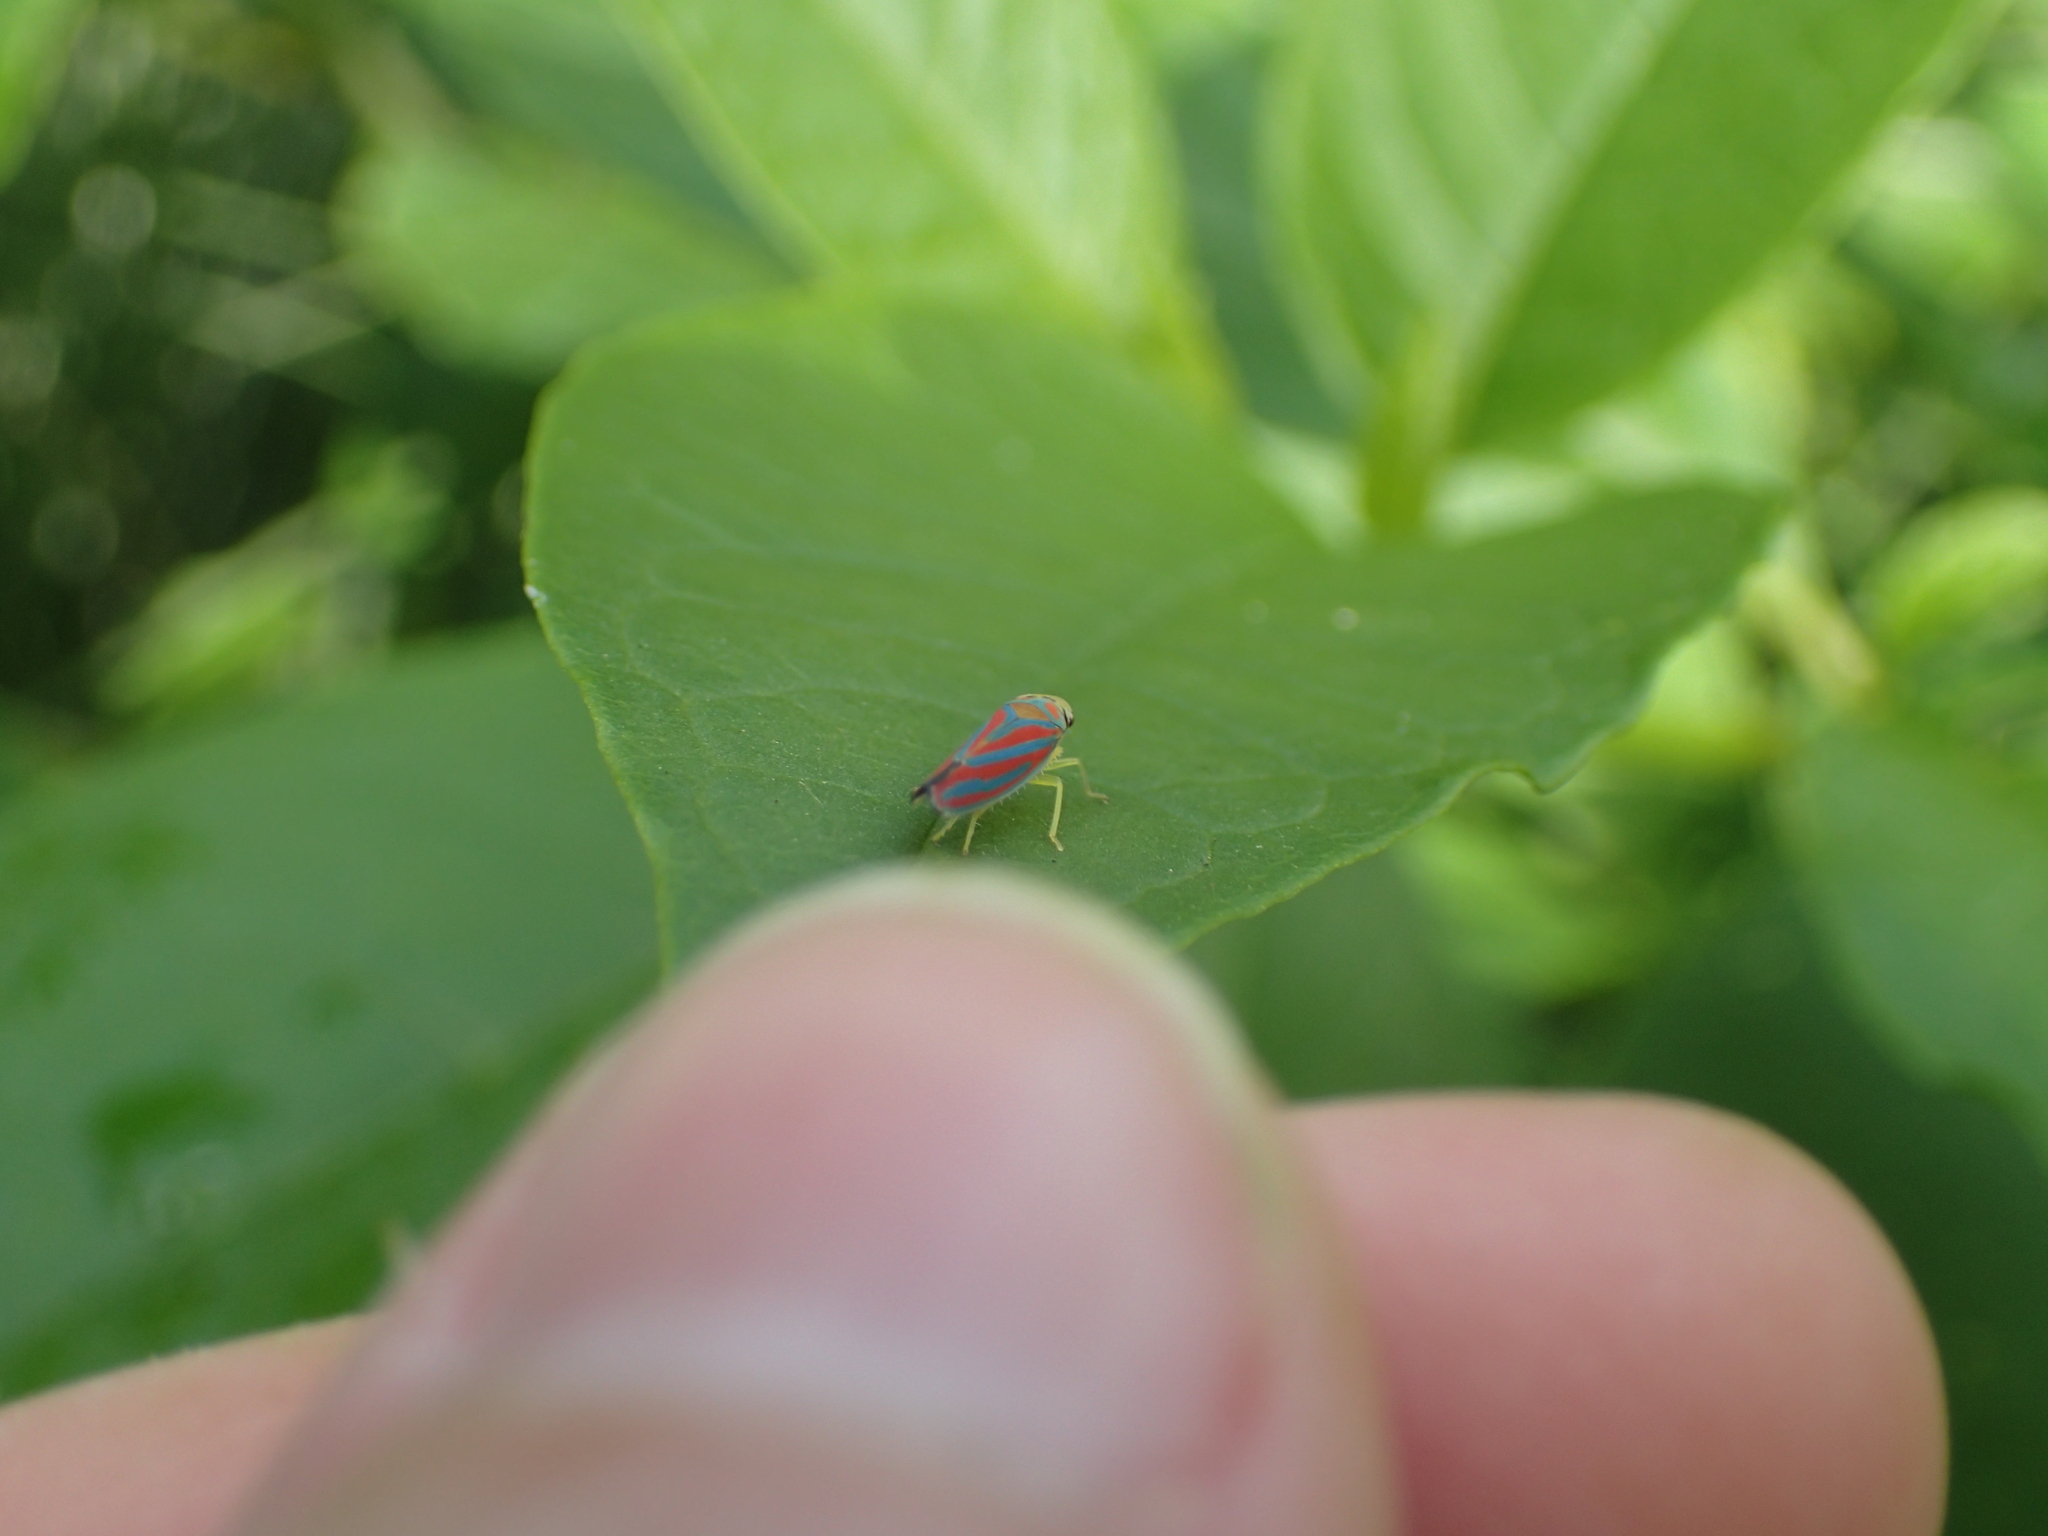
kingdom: Animalia
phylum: Arthropoda
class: Insecta
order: Hemiptera
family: Cicadellidae
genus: Graphocephala
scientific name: Graphocephala coccinea
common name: Candy-striped leafhopper
